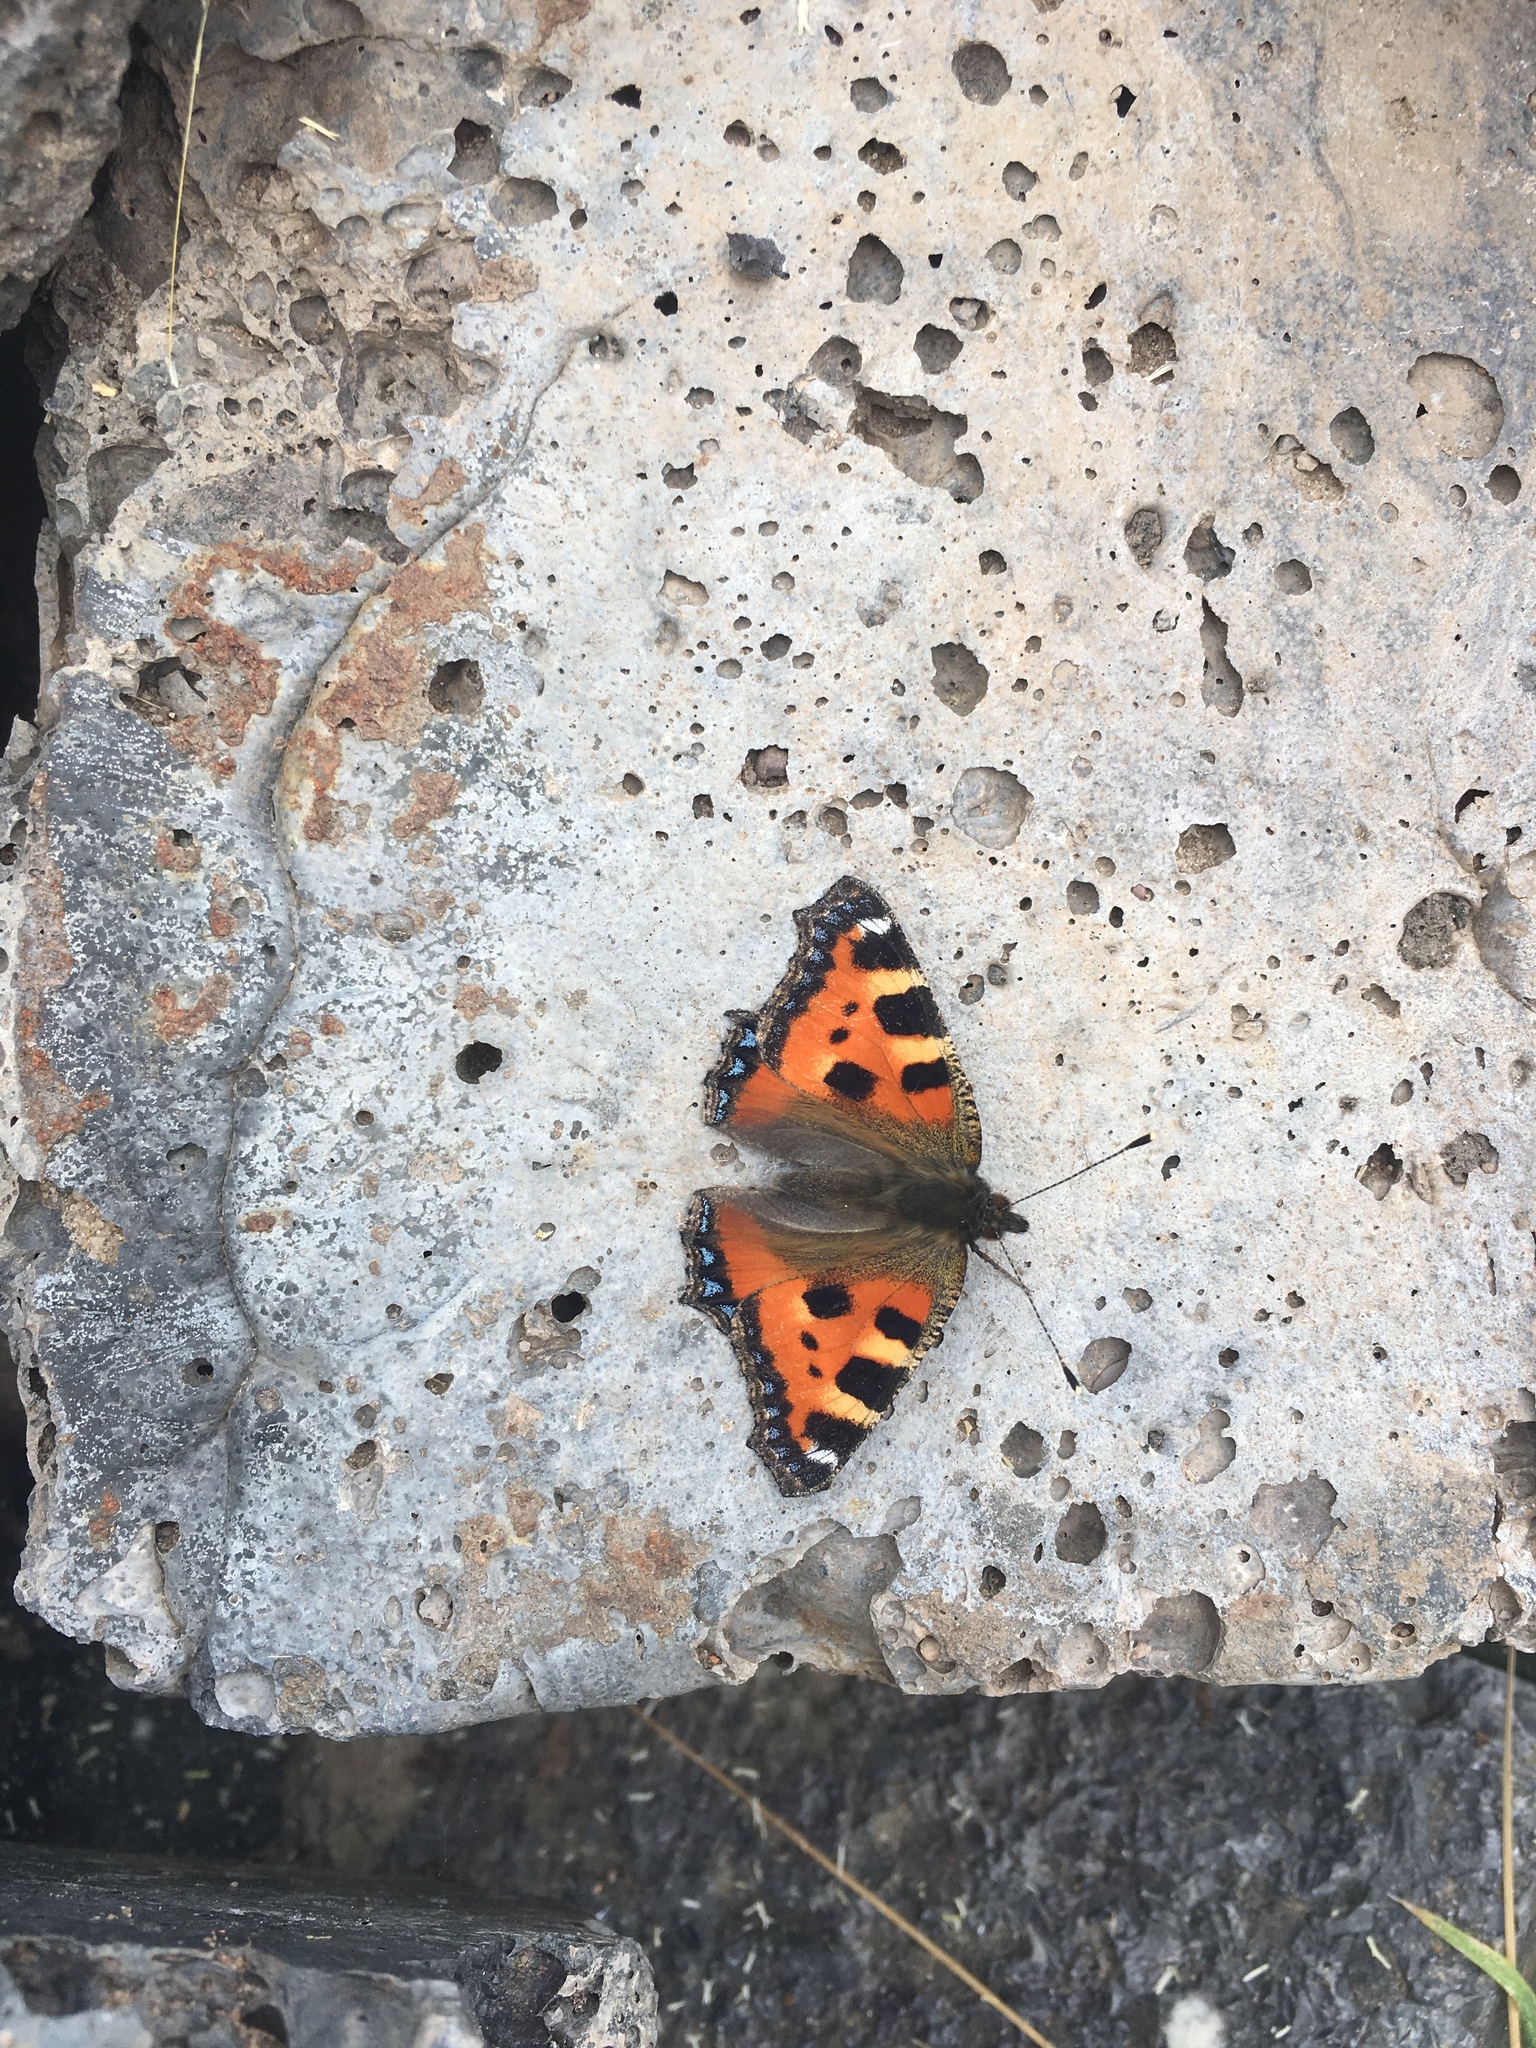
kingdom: Animalia
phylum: Arthropoda
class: Insecta
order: Lepidoptera
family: Nymphalidae
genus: Aglais
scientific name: Aglais urticae
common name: Small tortoiseshell
